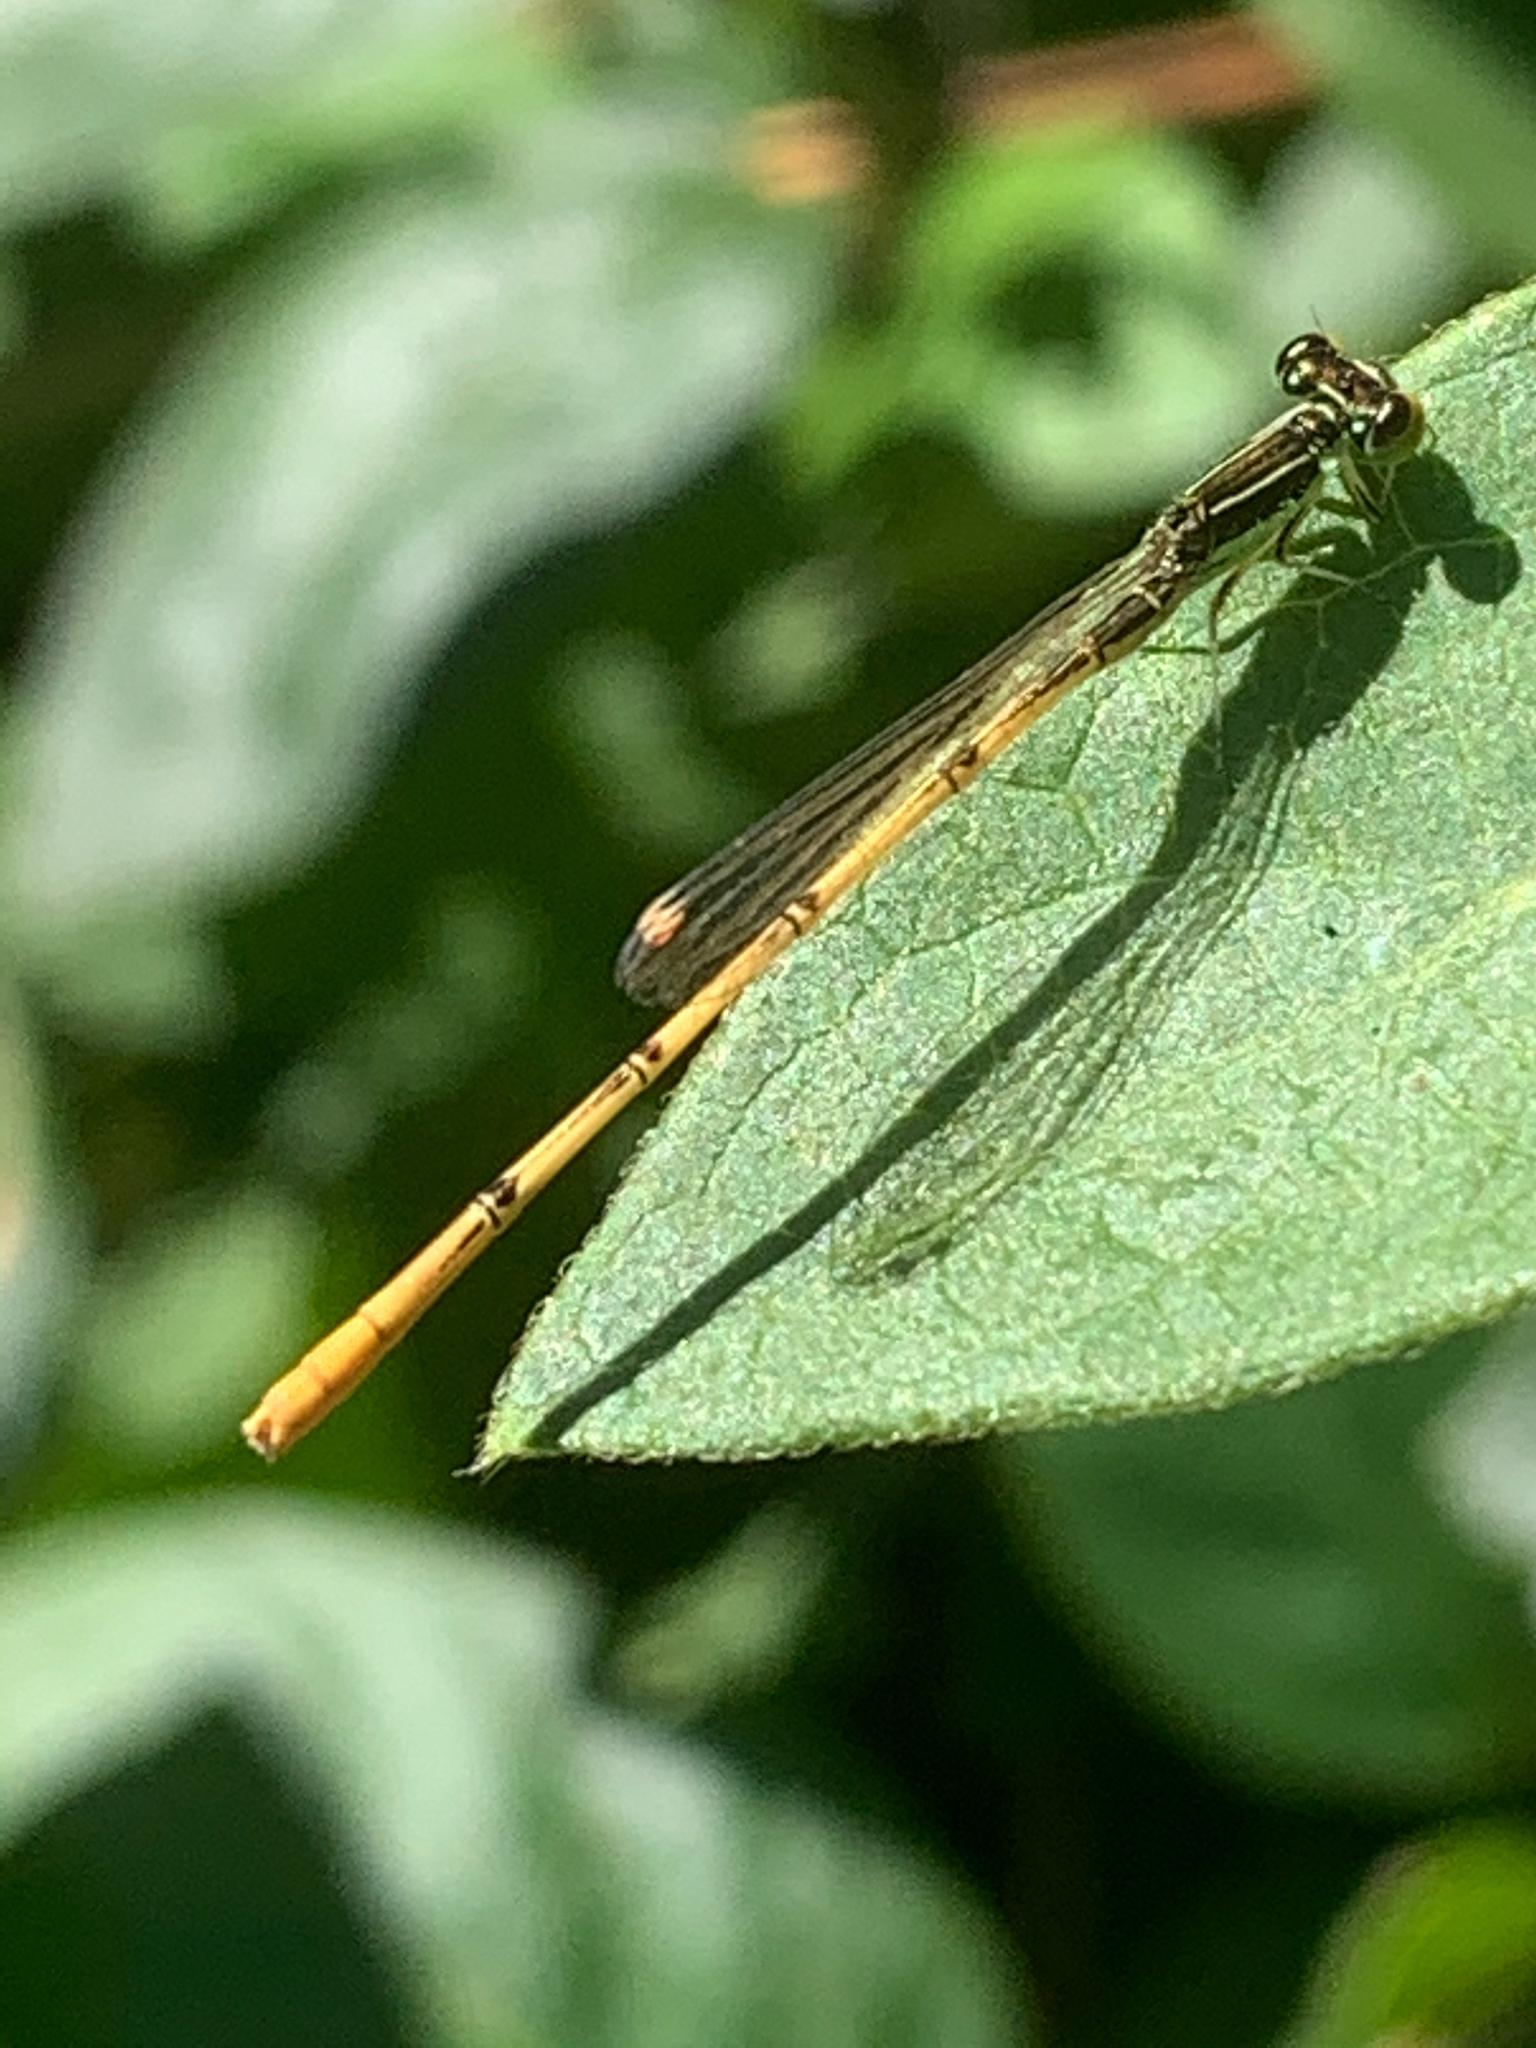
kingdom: Animalia
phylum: Arthropoda
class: Insecta
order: Odonata
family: Coenagrionidae
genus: Ischnura
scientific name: Ischnura hastata
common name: Citrine forktail
